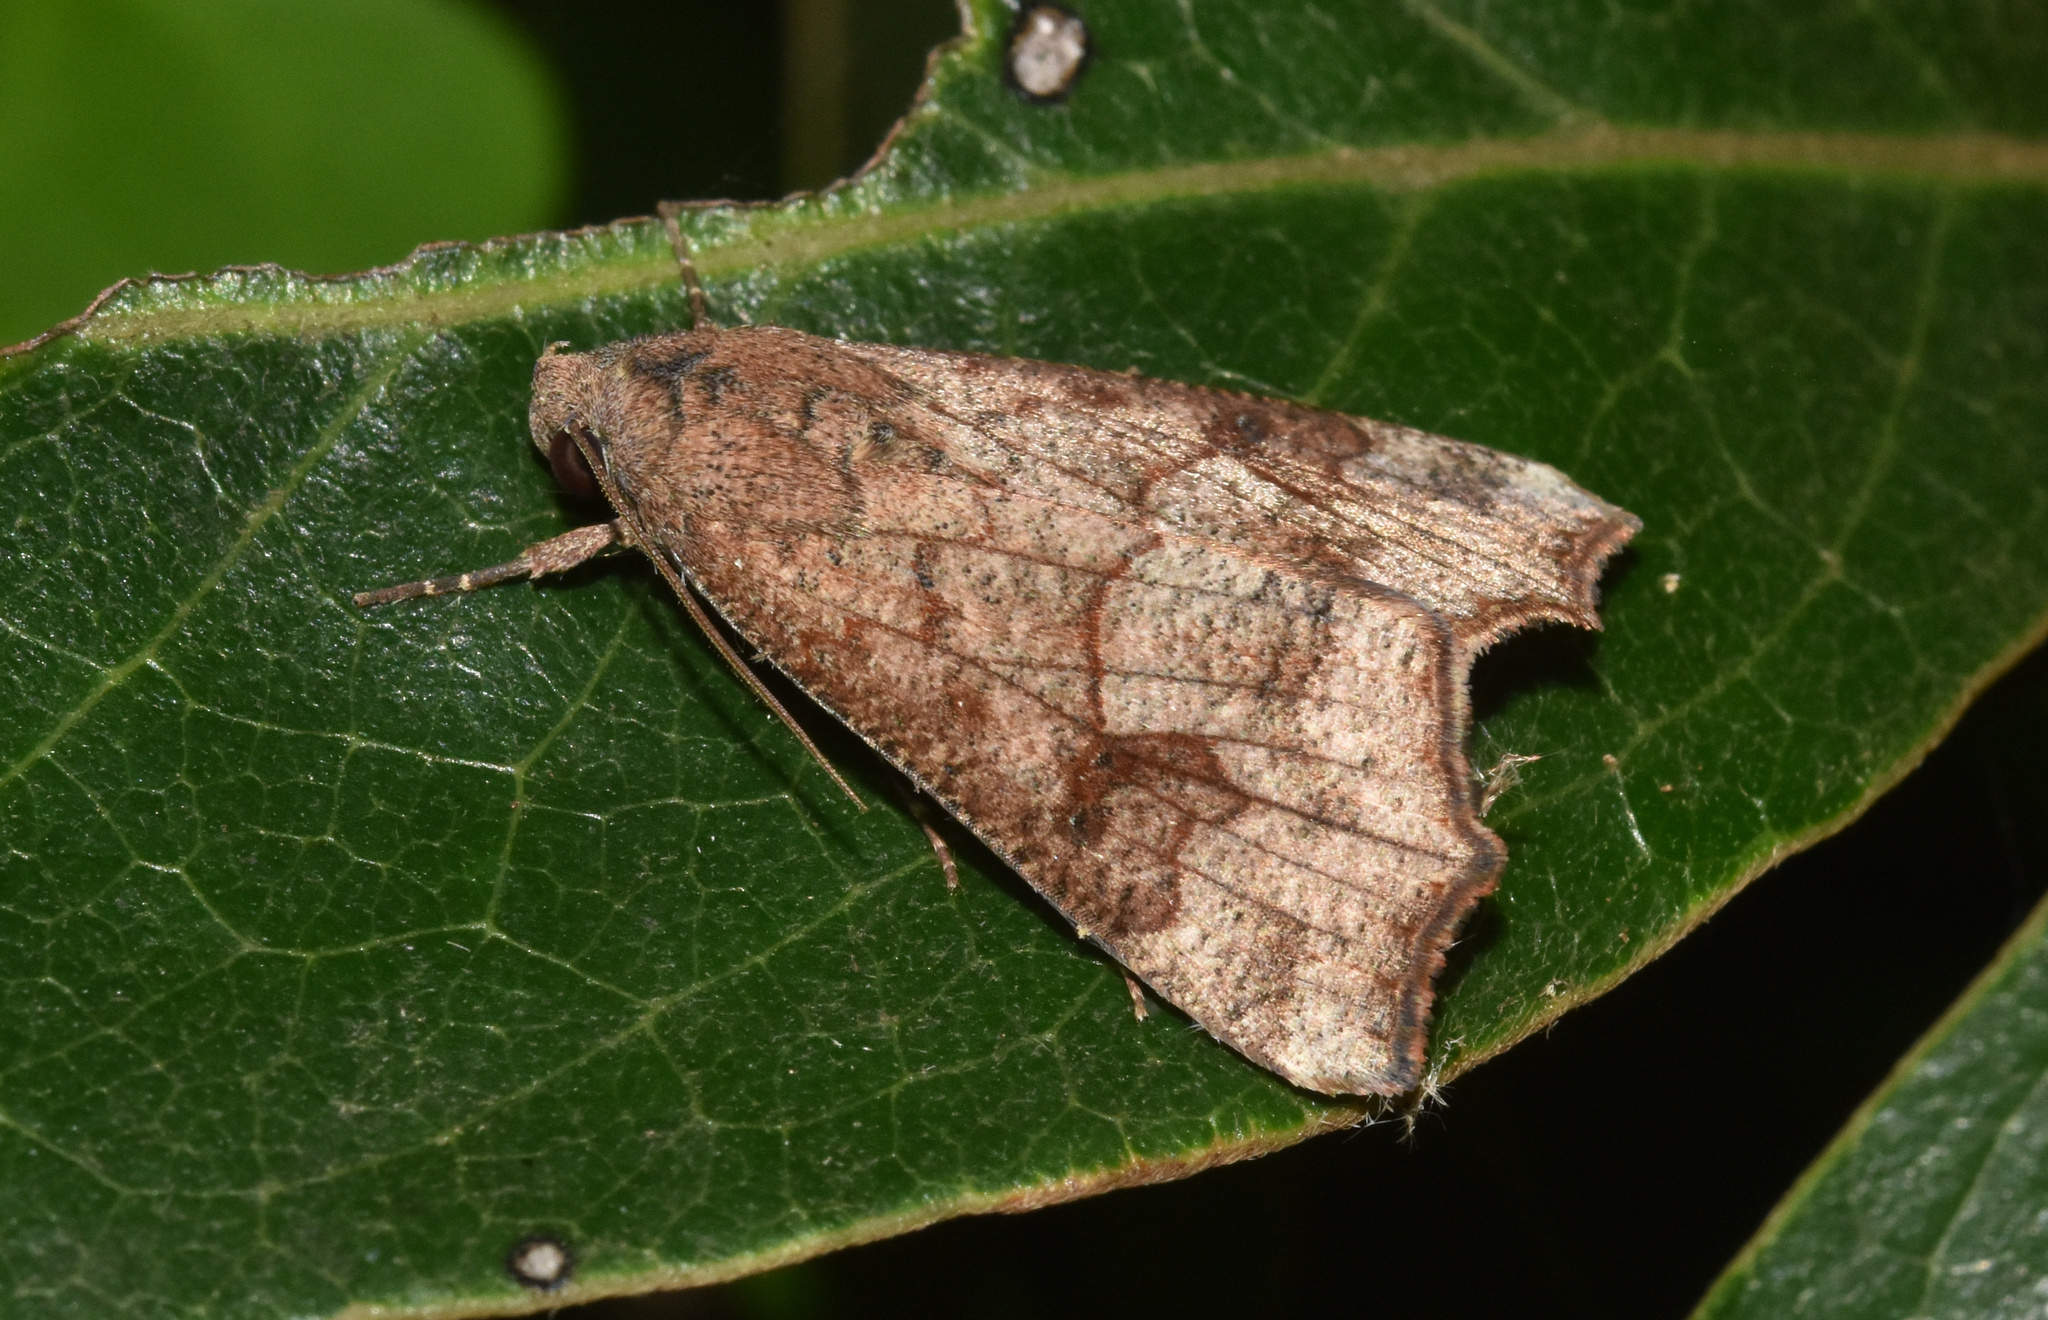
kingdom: Animalia
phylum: Arthropoda
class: Insecta
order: Lepidoptera
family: Erebidae
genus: Anomis
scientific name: Anomis sabulifera
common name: Angled gem
